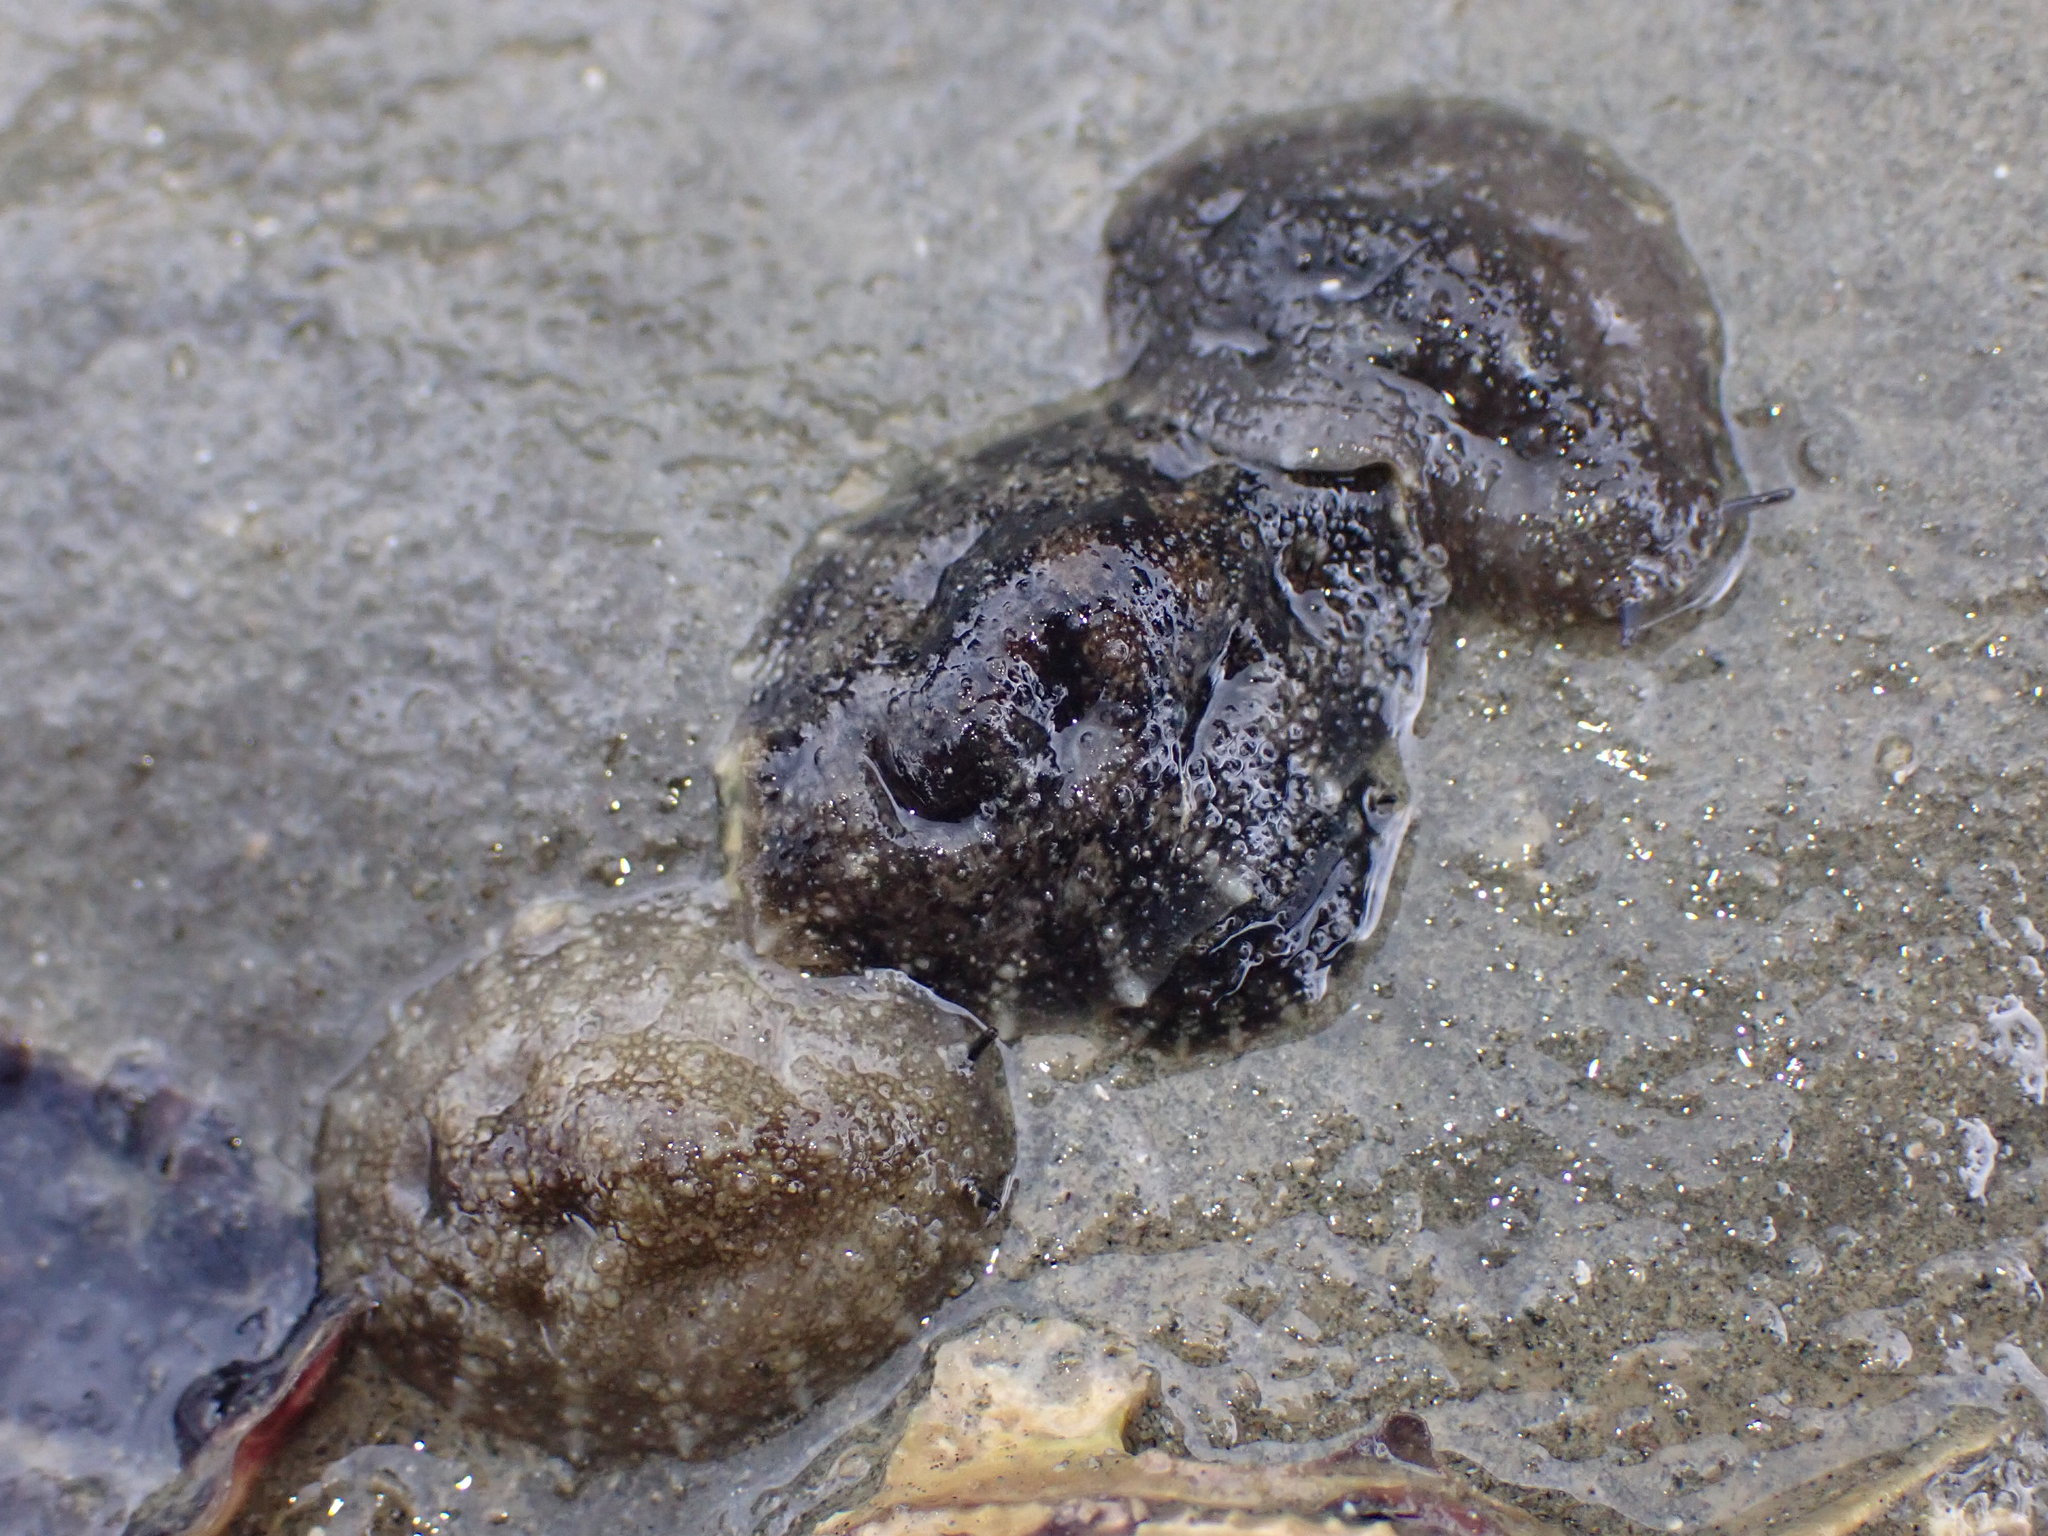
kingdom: Animalia
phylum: Mollusca
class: Gastropoda
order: Systellommatophora
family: Onchidiidae
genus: Onchidella
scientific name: Onchidella nigricans
